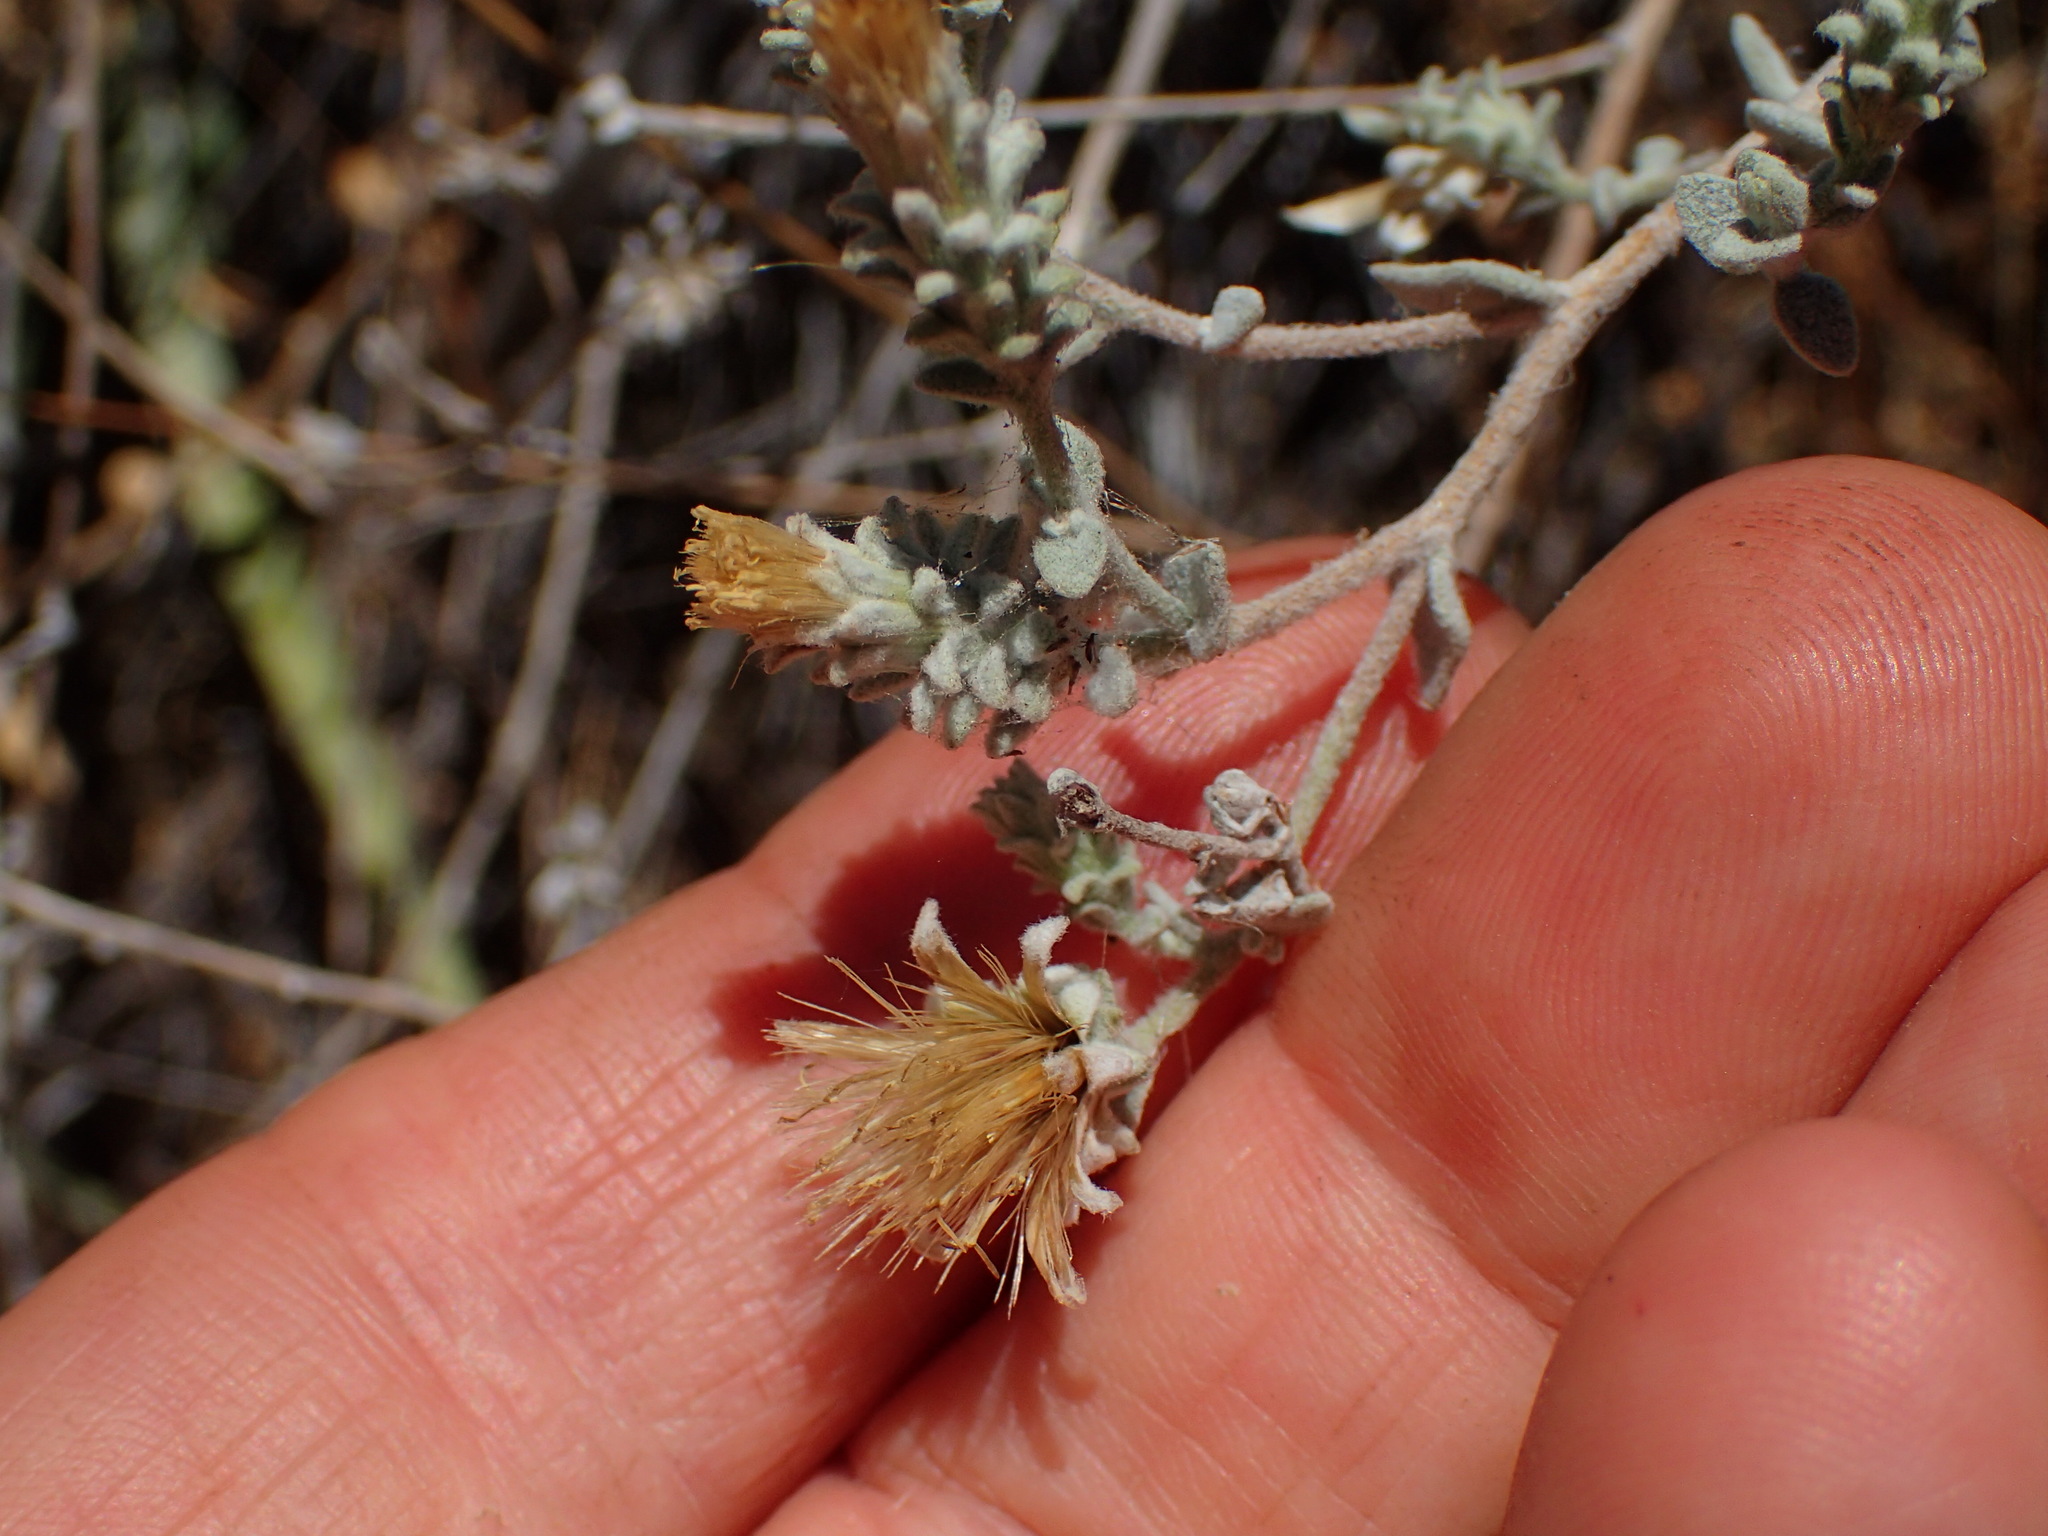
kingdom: Plantae
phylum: Tracheophyta
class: Magnoliopsida
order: Asterales
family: Asteraceae
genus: Brickellia
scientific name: Brickellia nevinii
